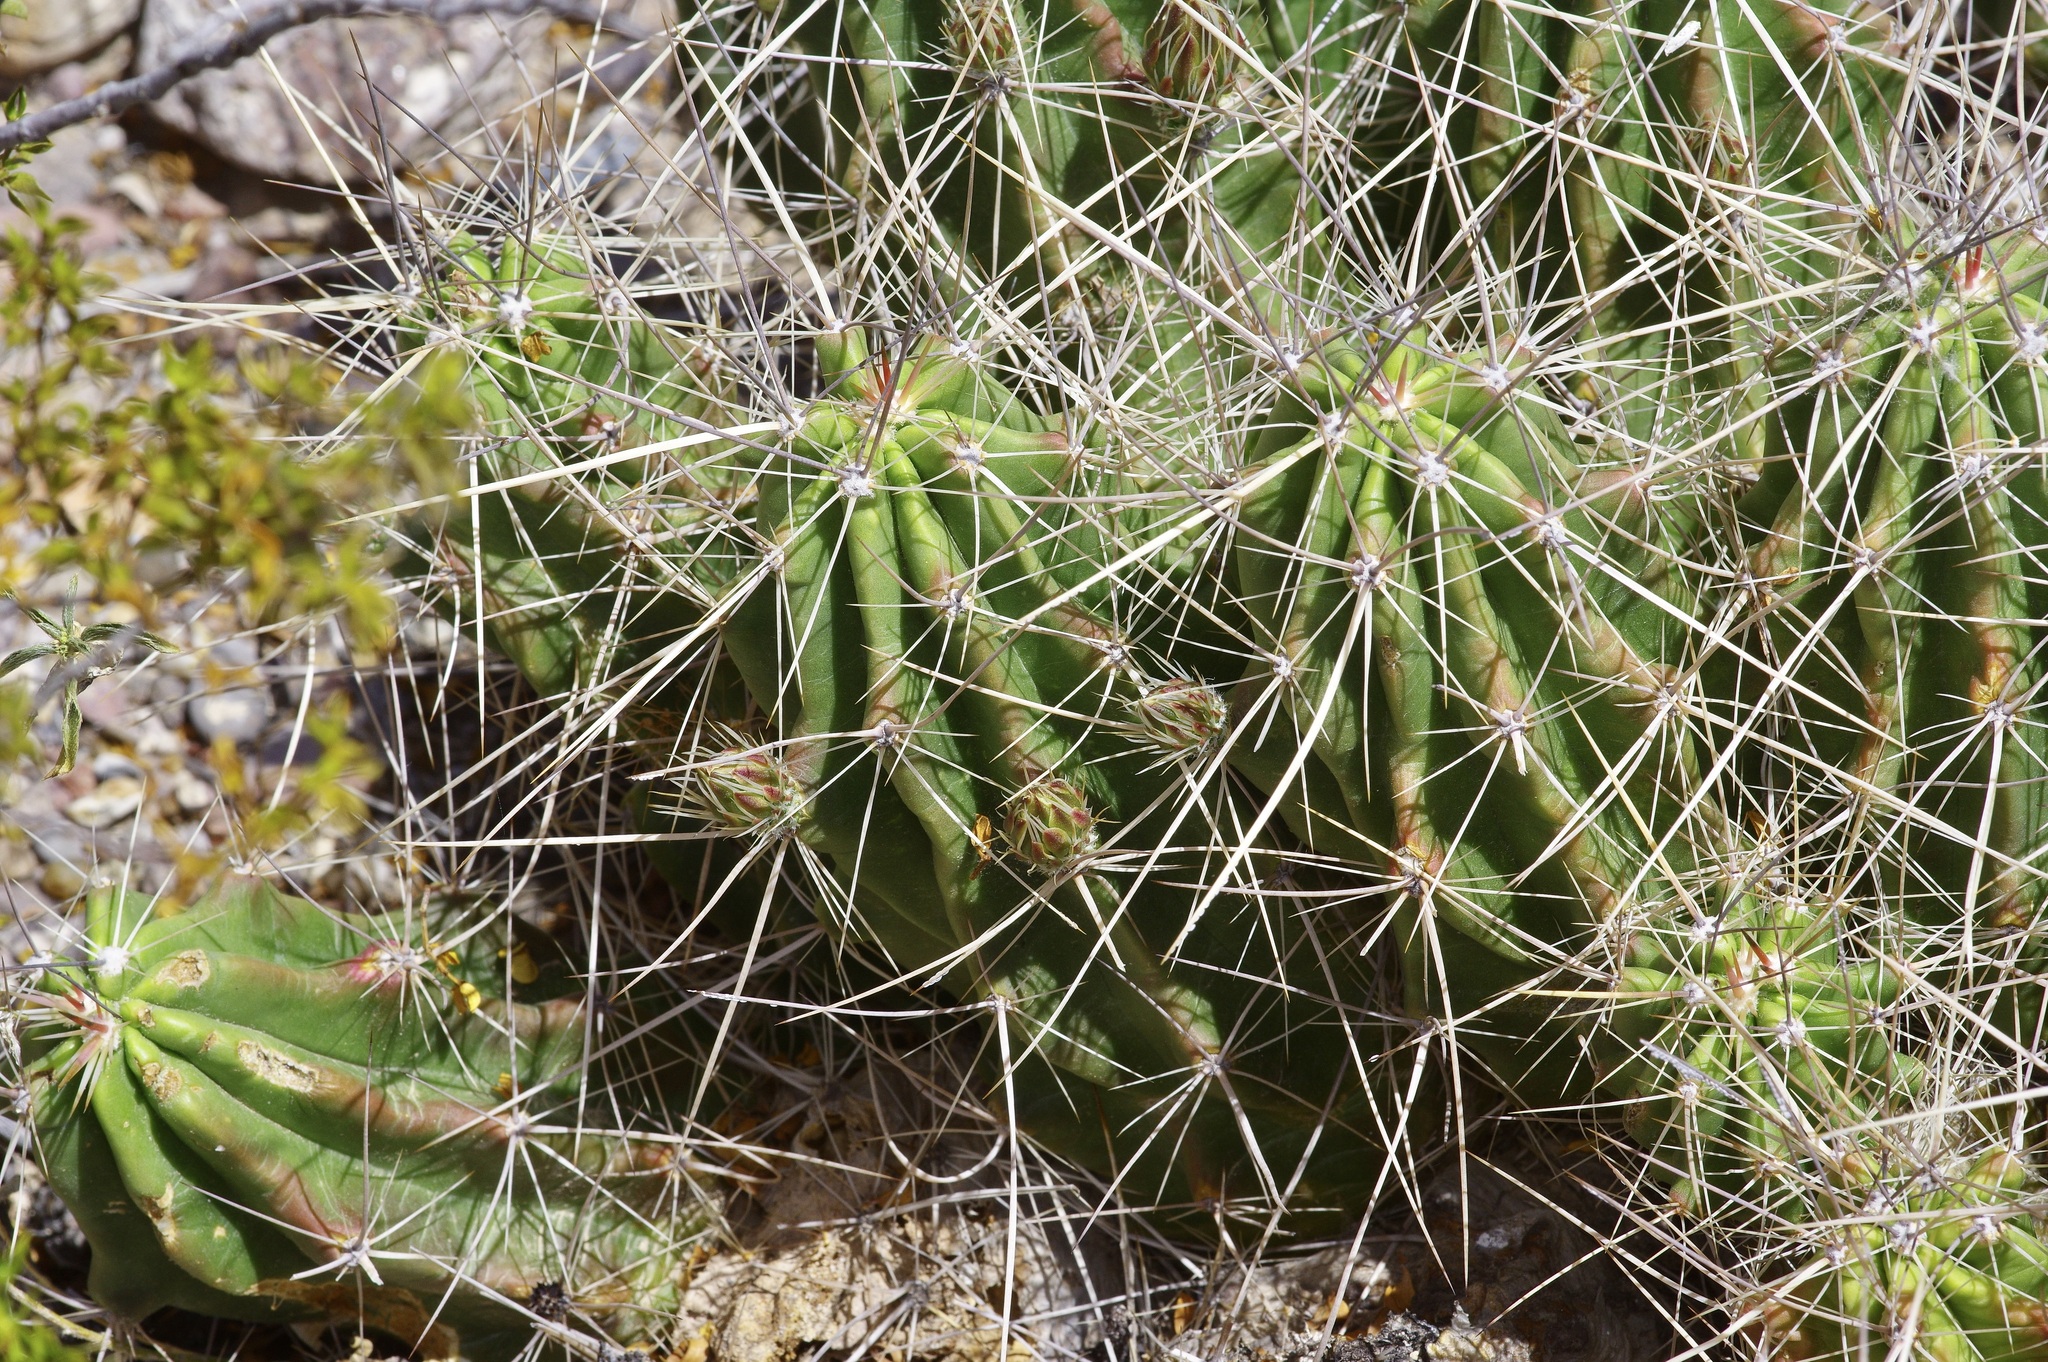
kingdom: Plantae
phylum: Tracheophyta
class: Magnoliopsida
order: Caryophyllales
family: Cactaceae
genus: Echinocereus
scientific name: Echinocereus enneacanthus
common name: Pitaya
